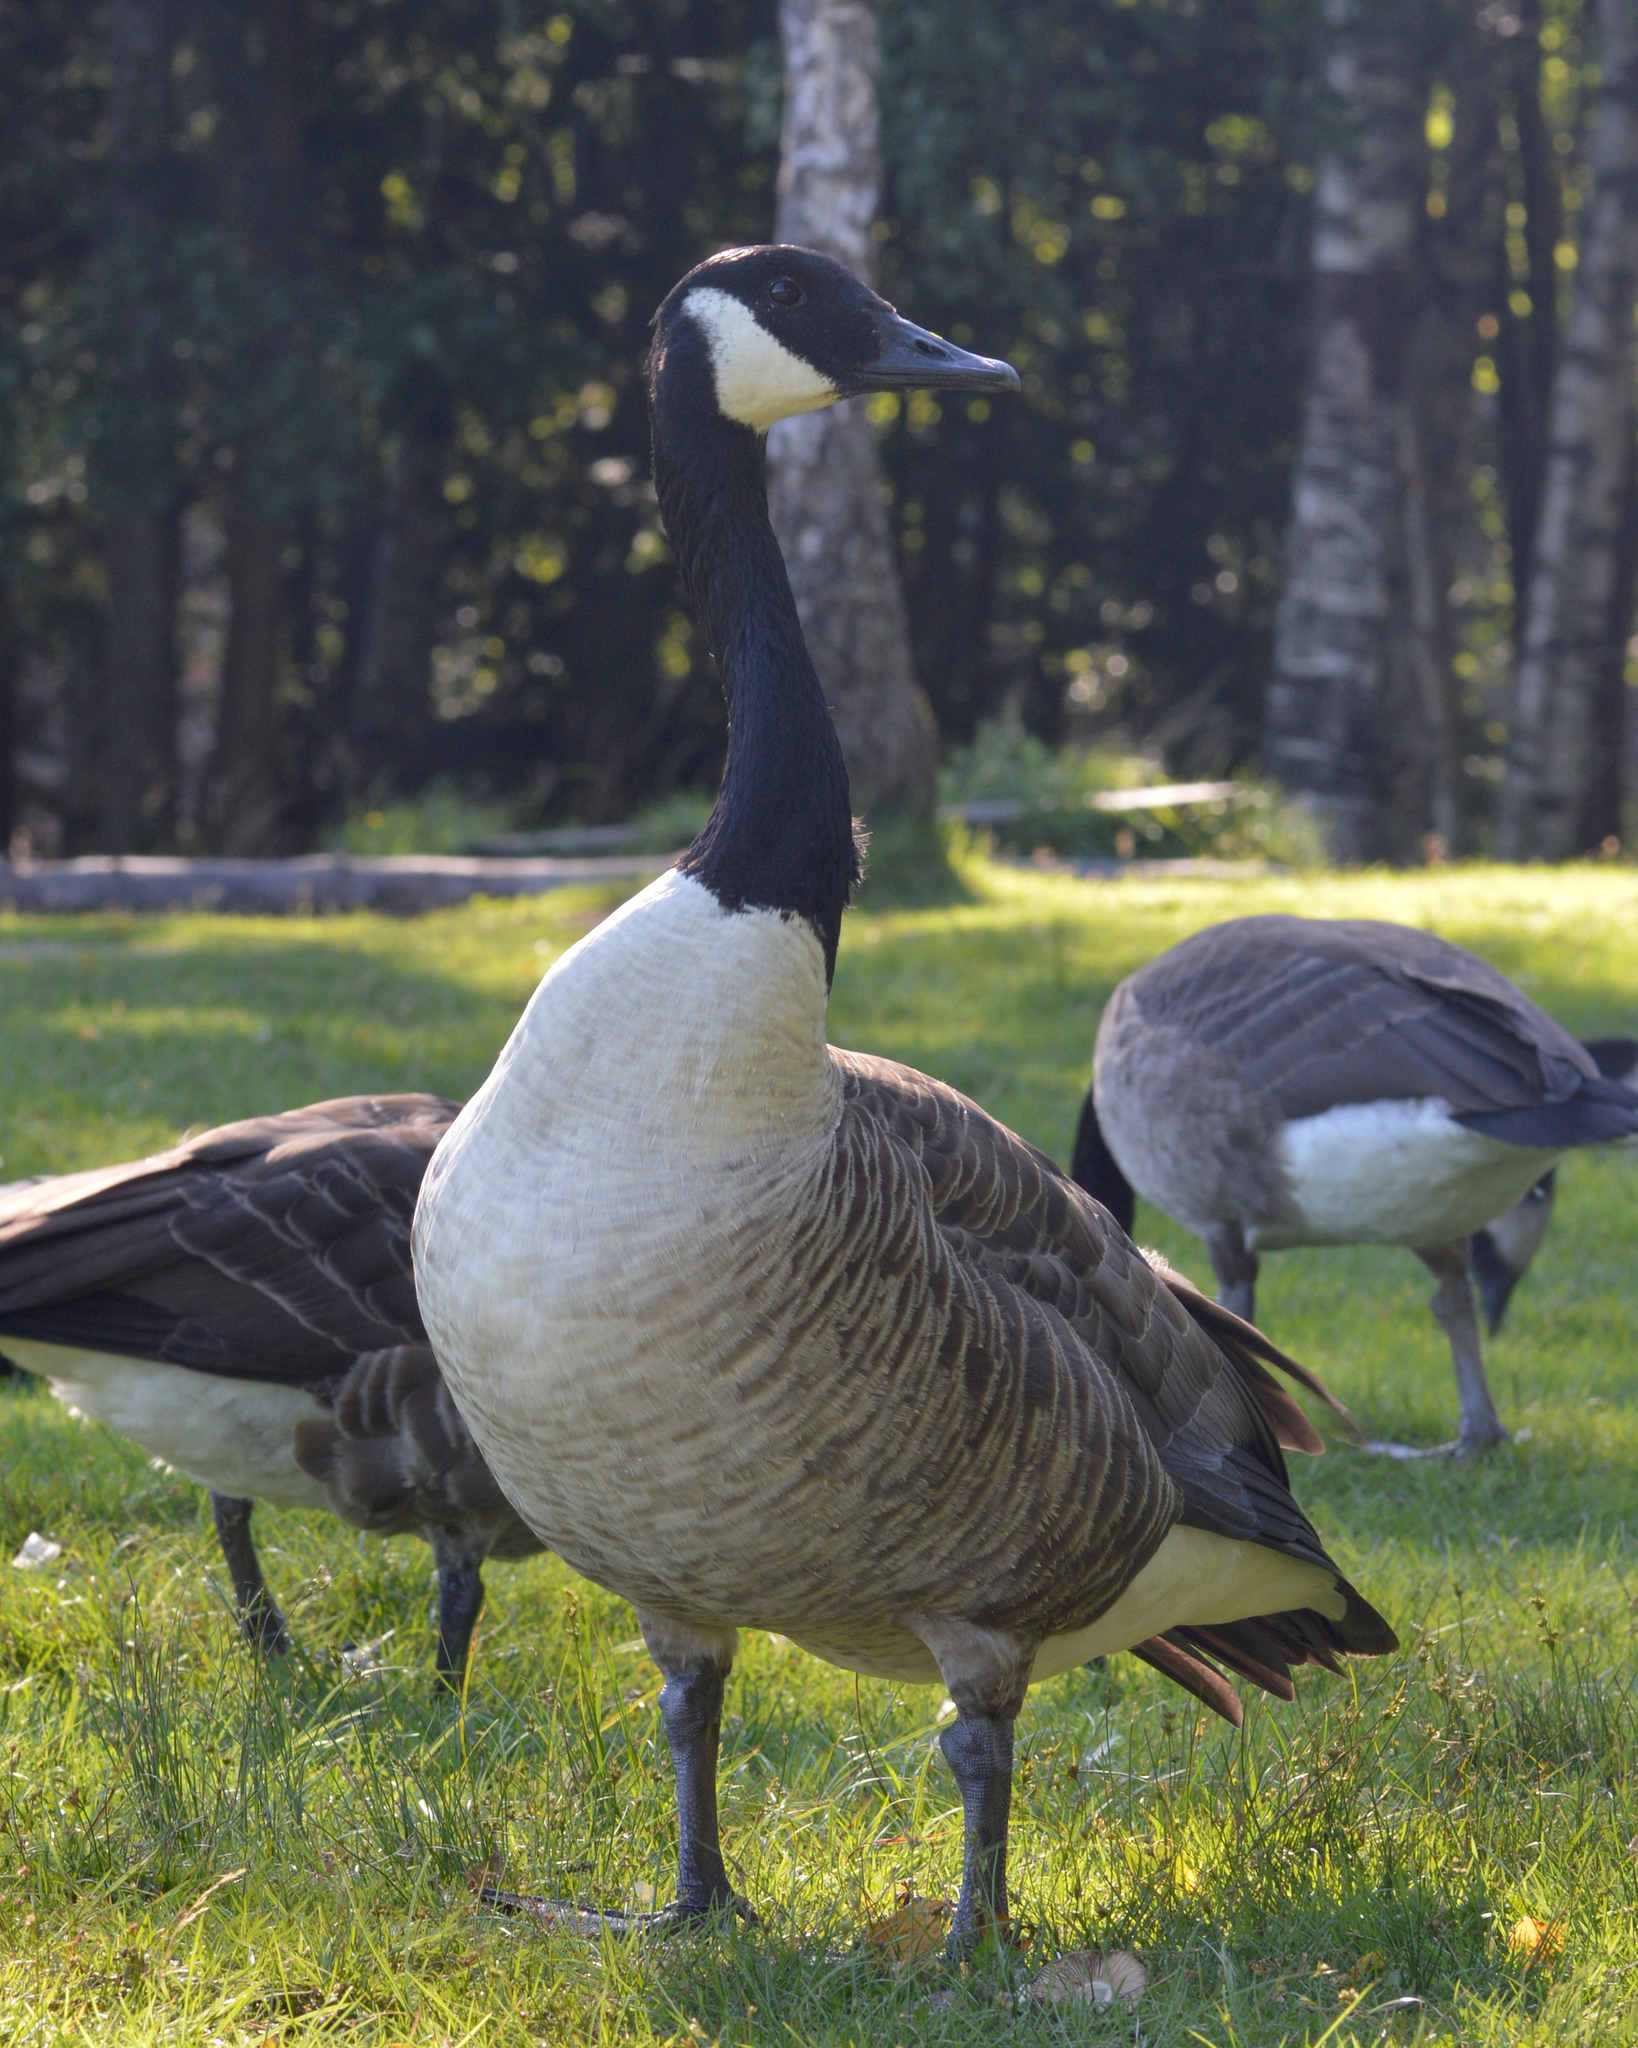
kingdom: Animalia
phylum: Chordata
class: Aves
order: Anseriformes
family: Anatidae
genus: Branta
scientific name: Branta canadensis
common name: Canada goose
